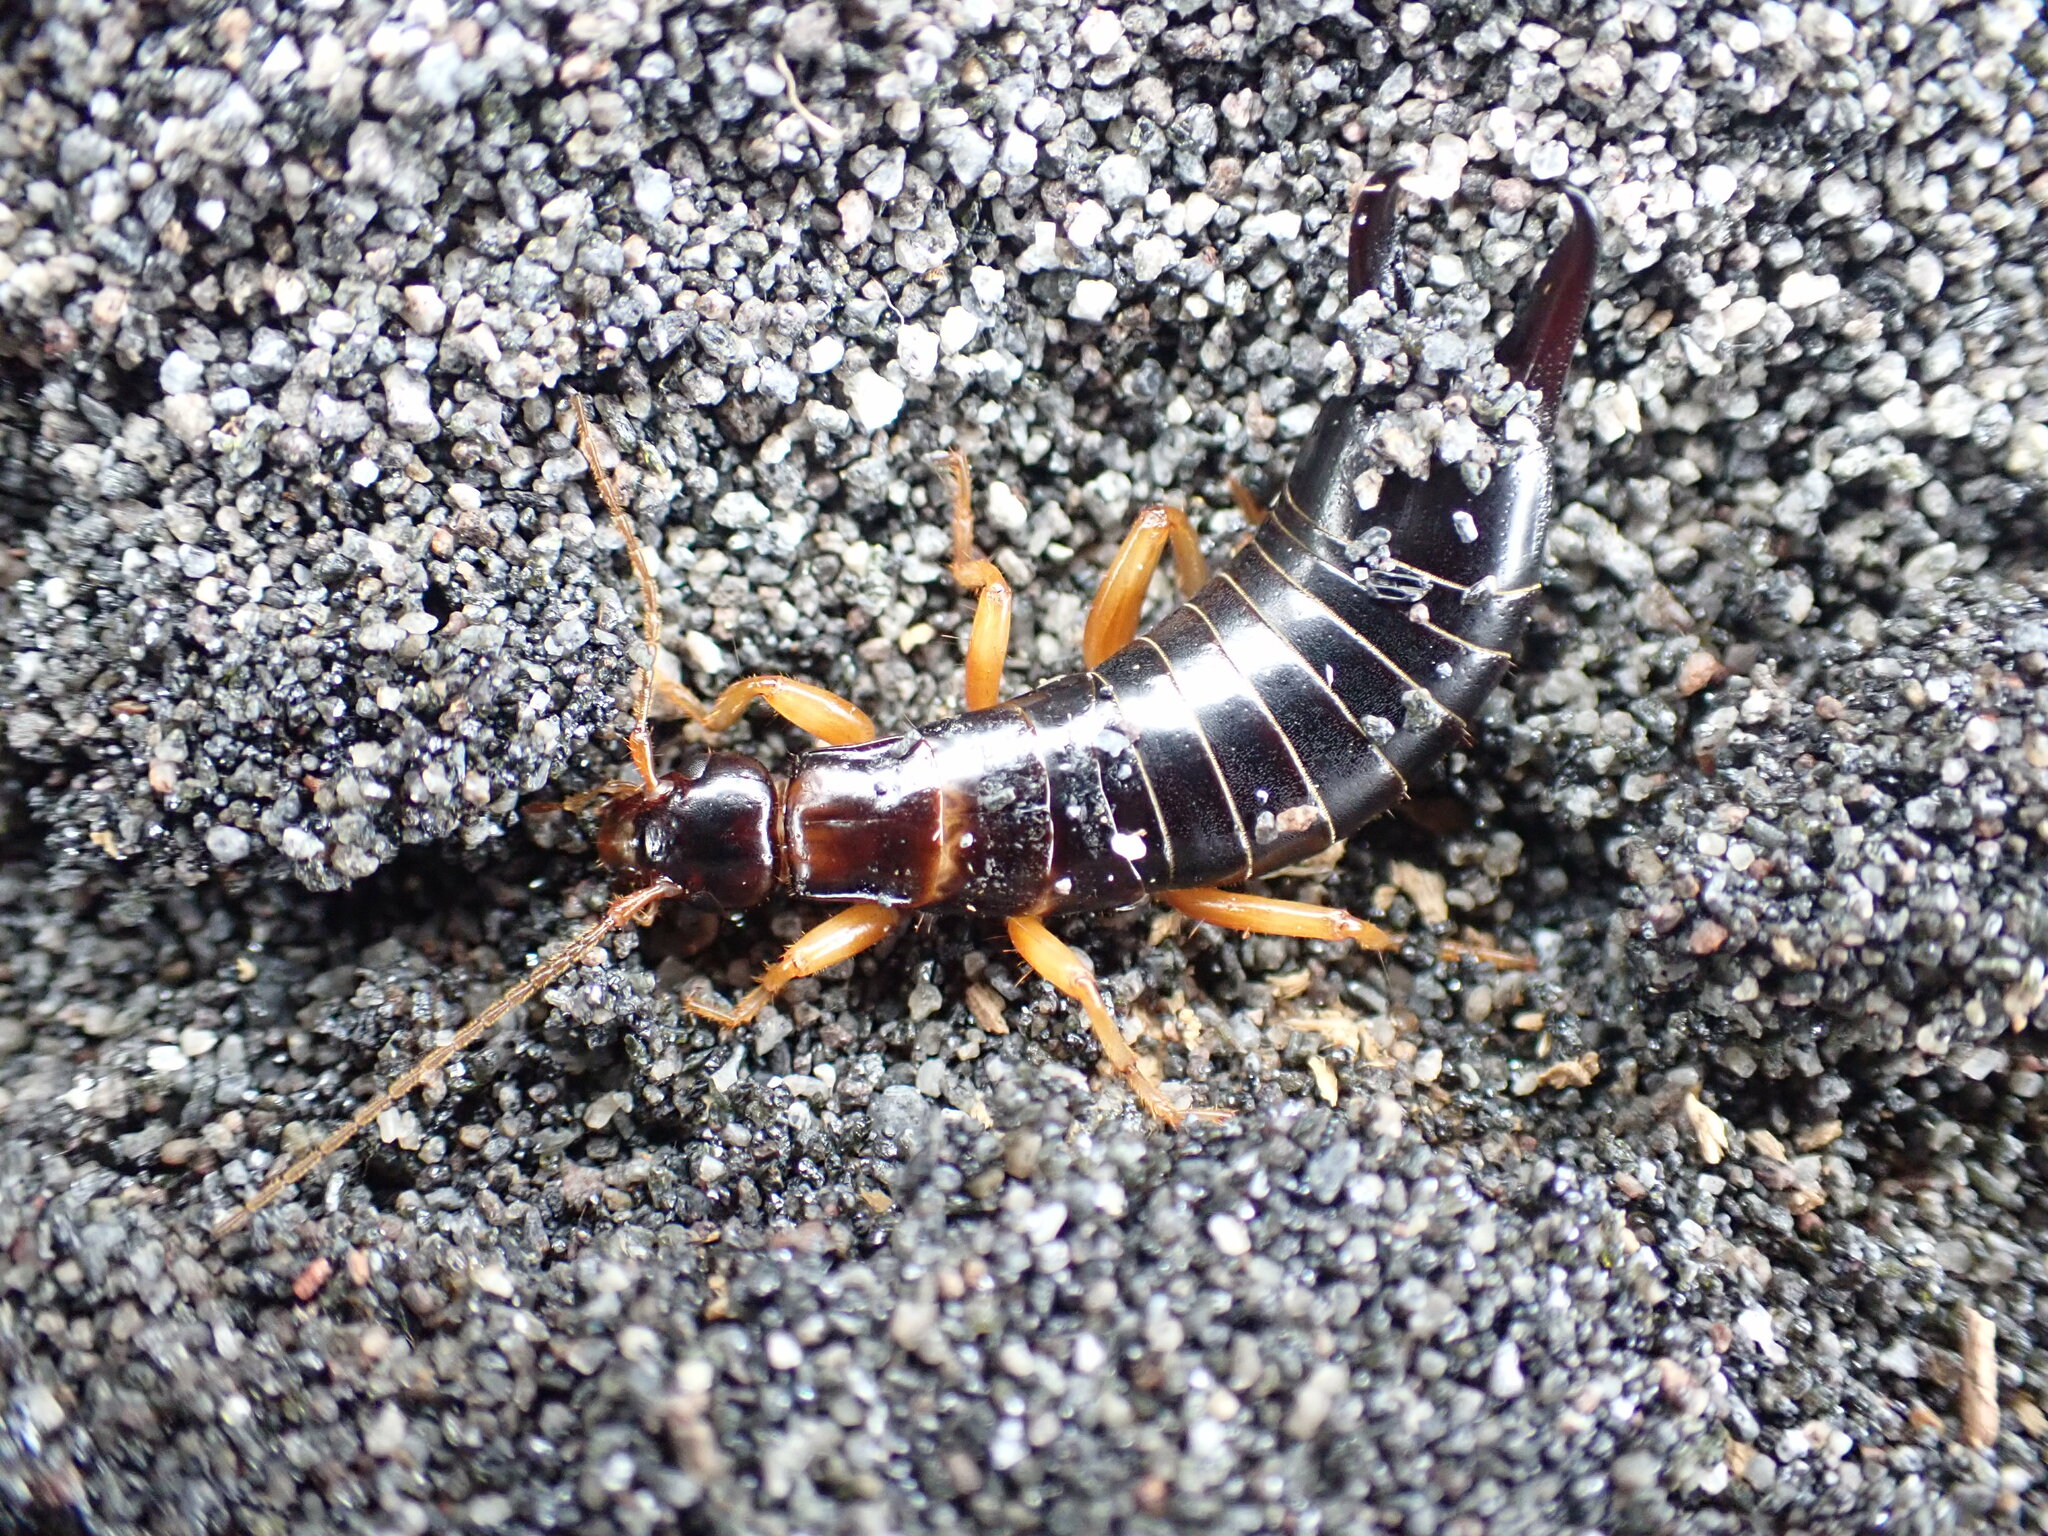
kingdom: Animalia
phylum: Arthropoda
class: Insecta
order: Dermaptera
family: Anisolabididae
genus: Anisolabis
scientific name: Anisolabis littorea
